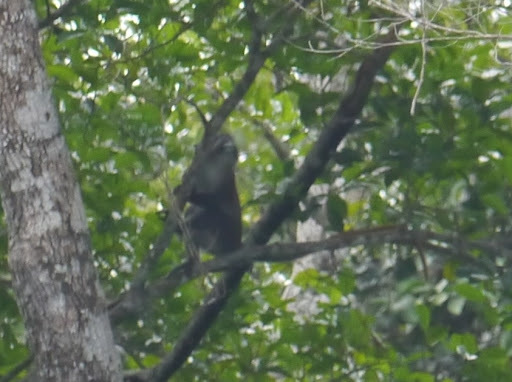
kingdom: Animalia
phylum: Chordata
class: Mammalia
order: Primates
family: Cercopithecidae
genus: Cercopithecus
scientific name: Cercopithecus cephus
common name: Moustached guenon
